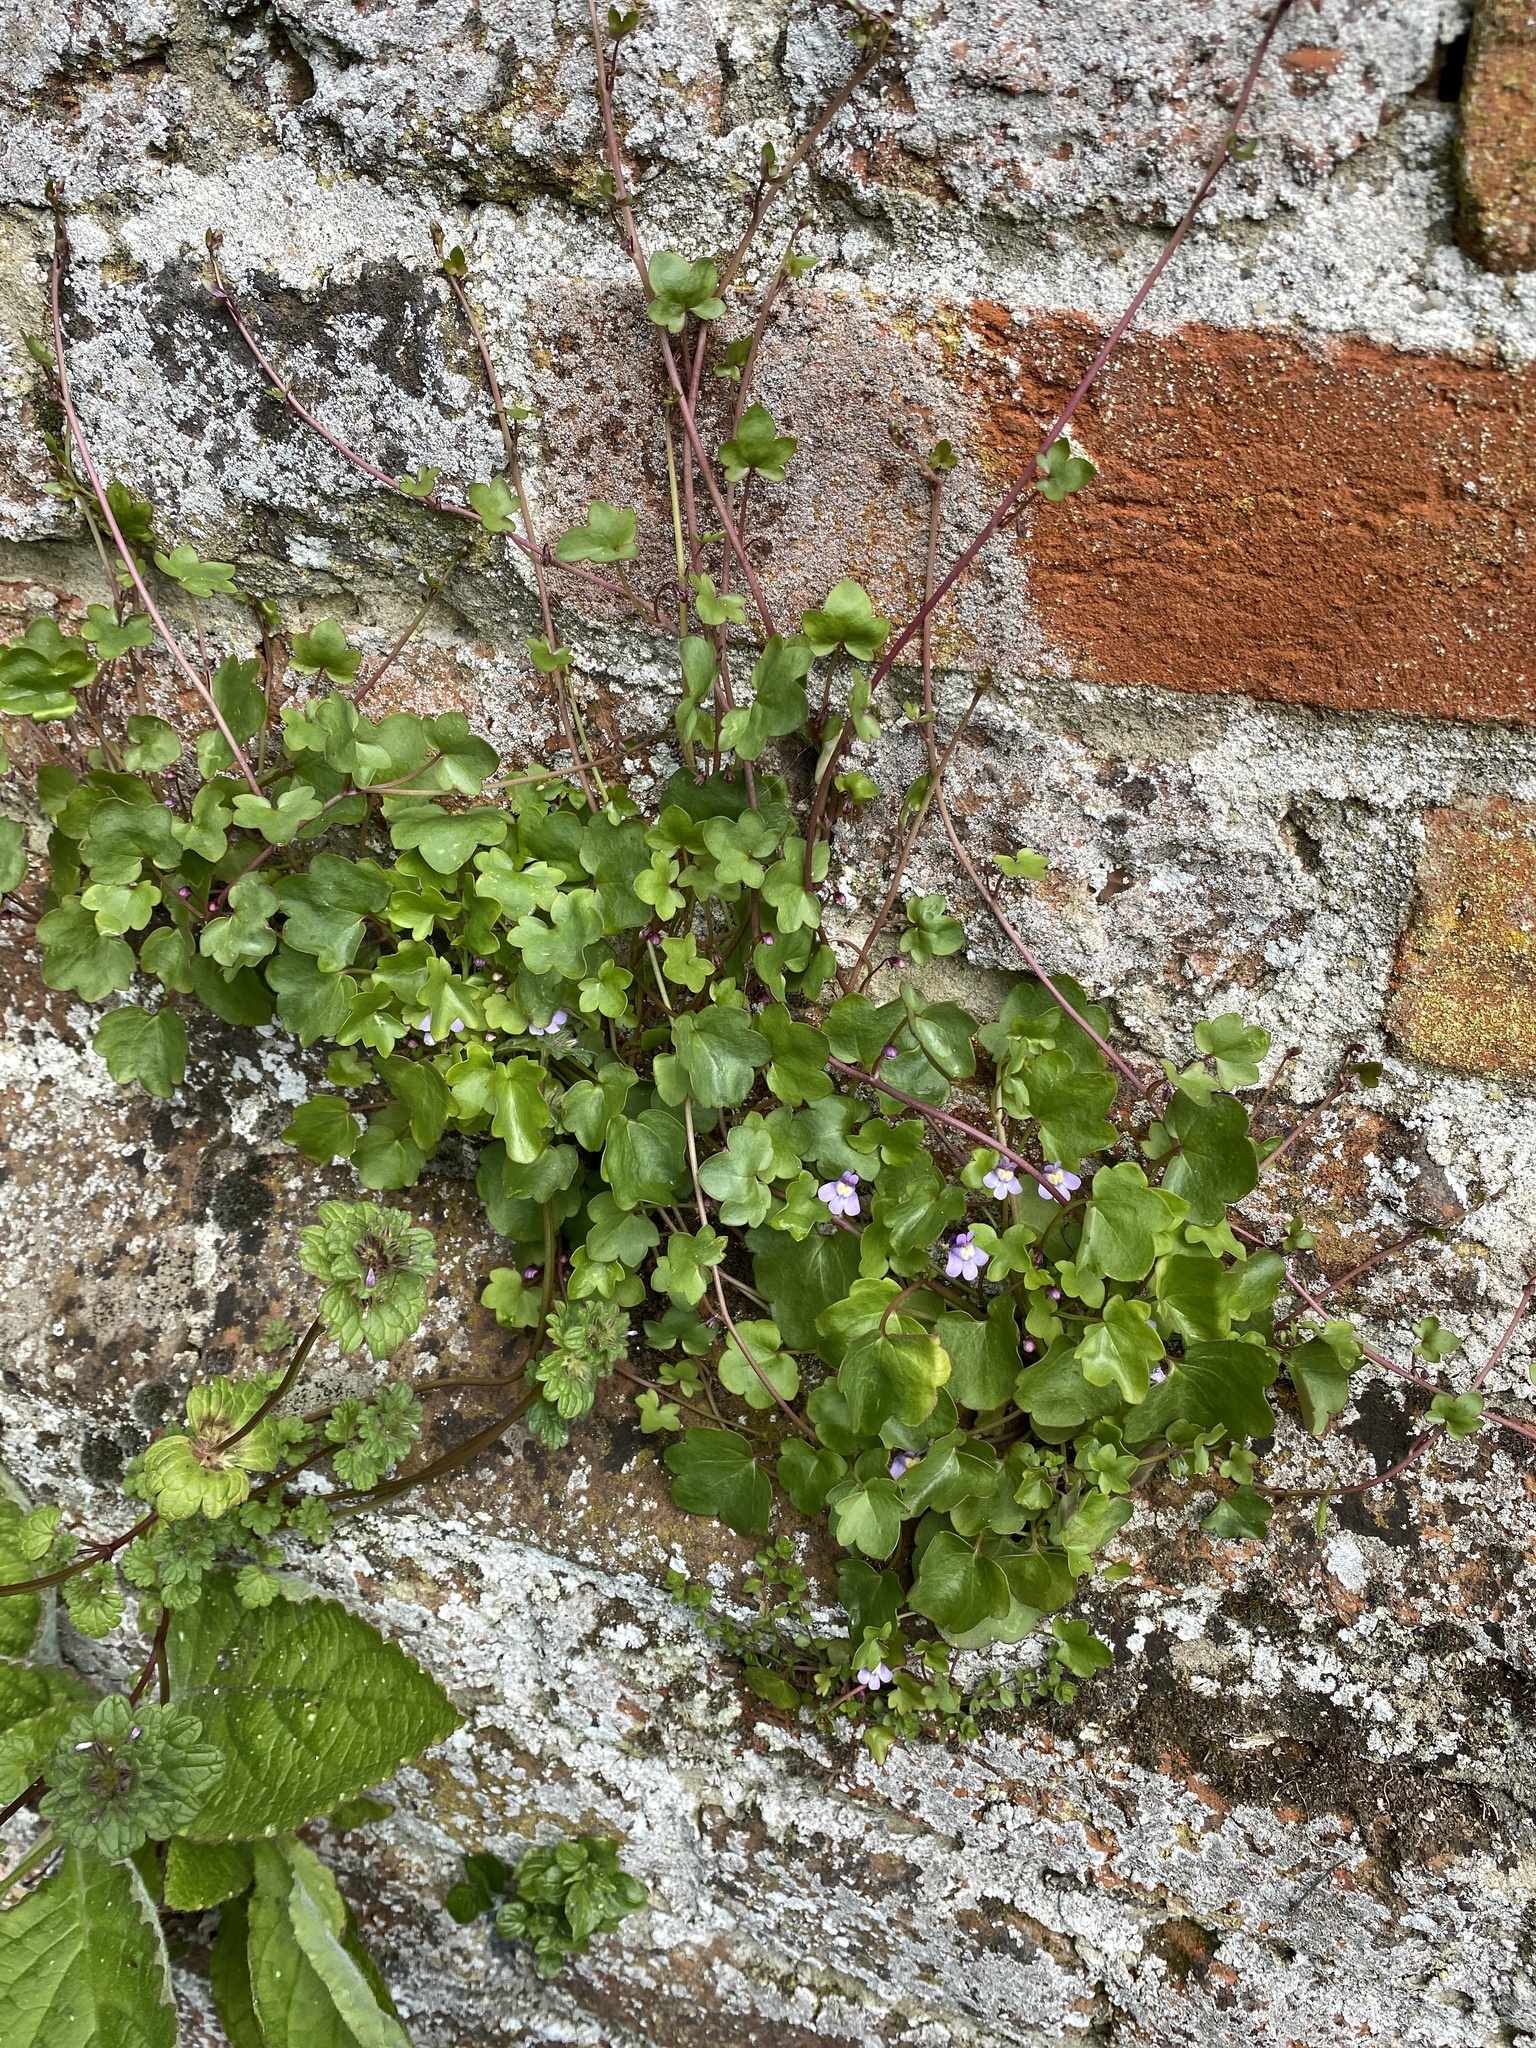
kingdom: Plantae
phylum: Tracheophyta
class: Magnoliopsida
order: Lamiales
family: Plantaginaceae
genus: Cymbalaria
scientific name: Cymbalaria muralis
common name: Ivy-leaved toadflax
